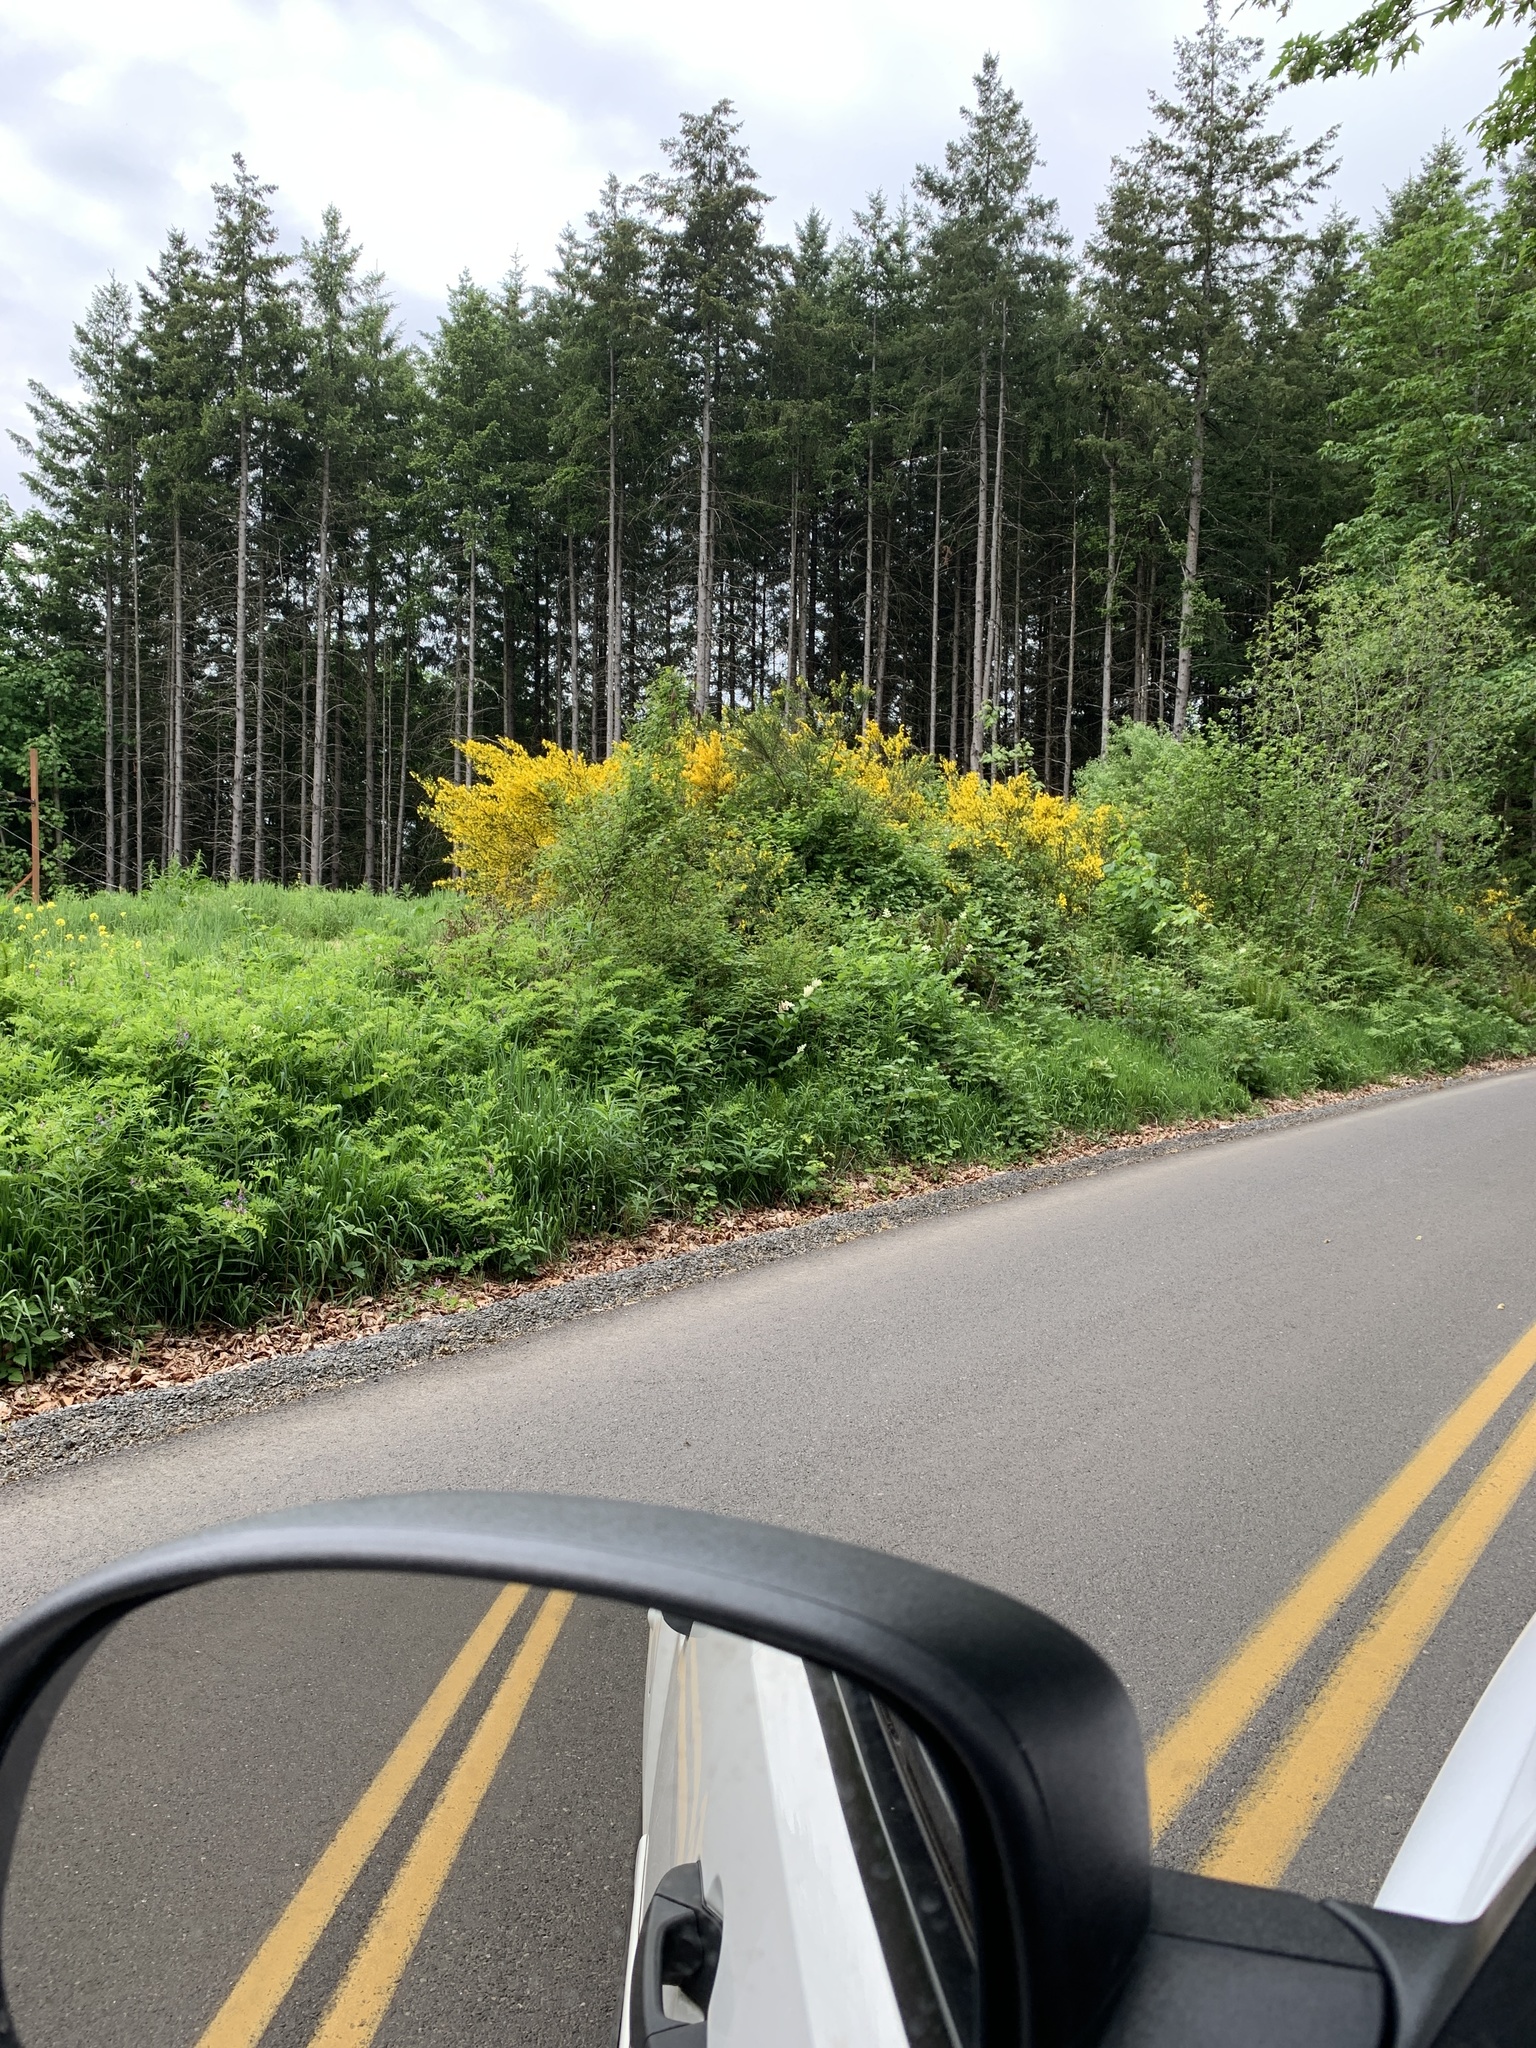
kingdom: Plantae
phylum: Tracheophyta
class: Magnoliopsida
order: Fabales
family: Fabaceae
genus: Cytisus
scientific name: Cytisus scoparius
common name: Scotch broom
